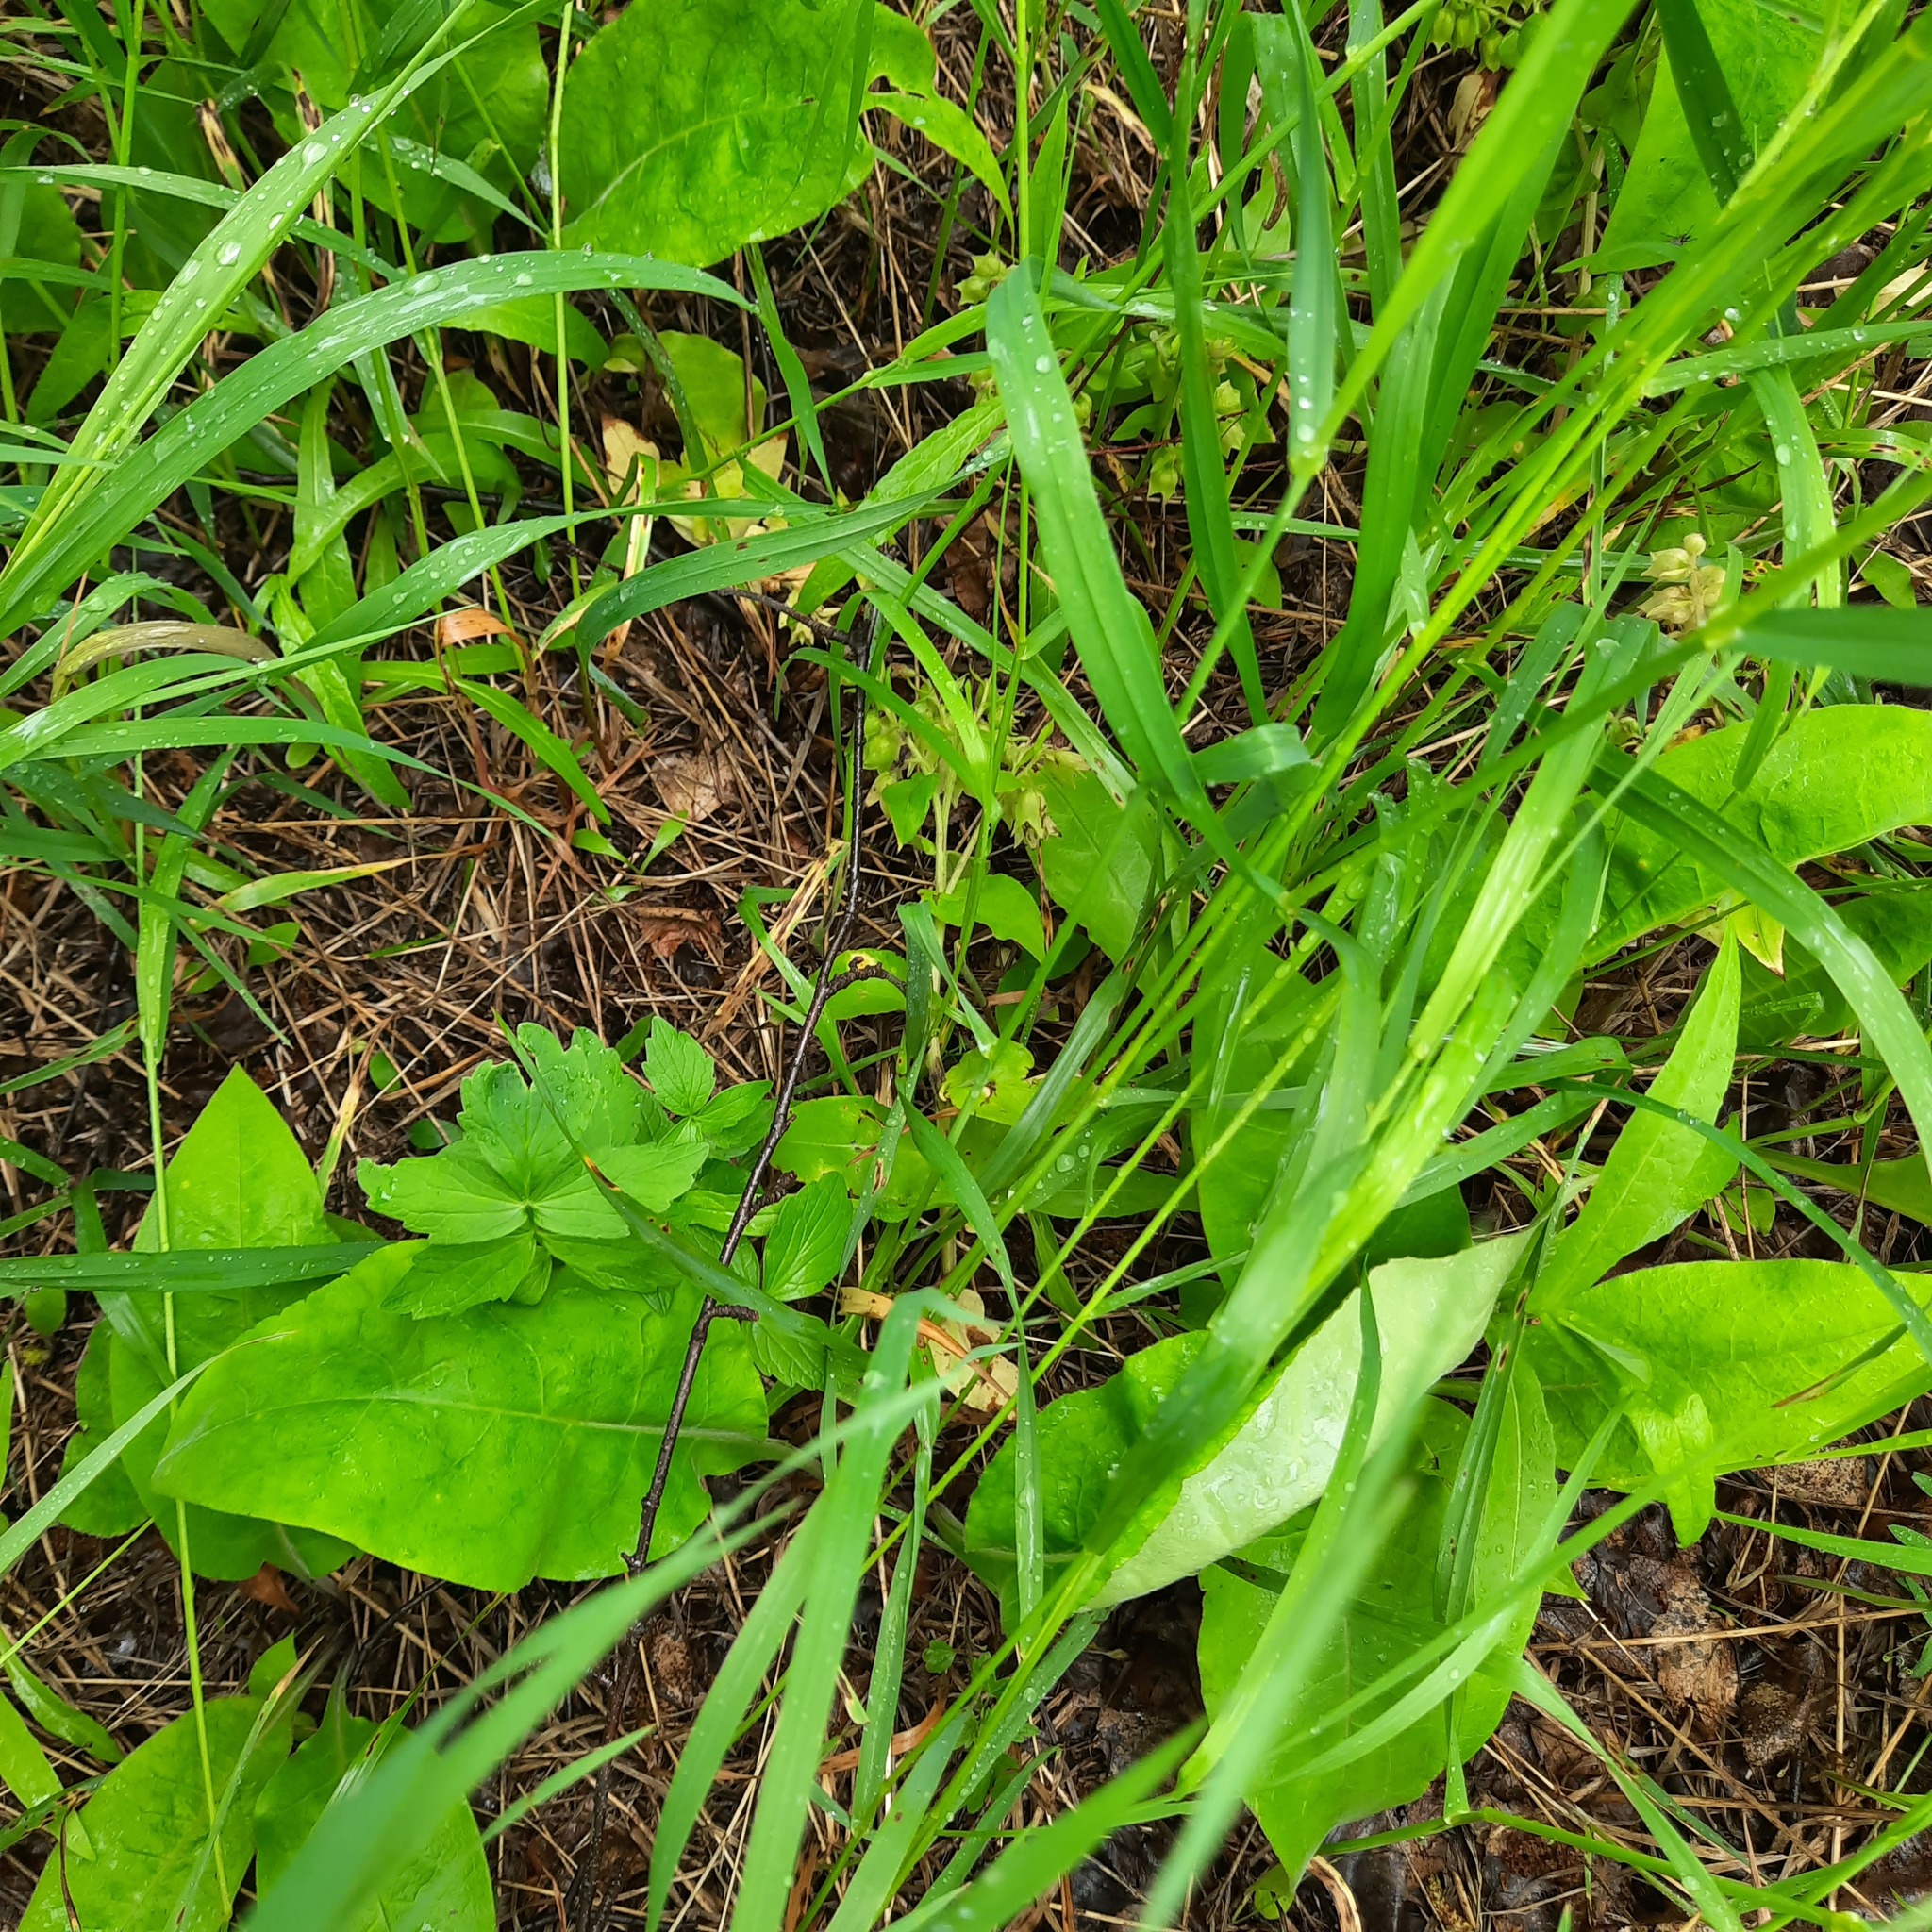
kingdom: Plantae
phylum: Tracheophyta
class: Magnoliopsida
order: Boraginales
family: Boraginaceae
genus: Pulmonaria
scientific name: Pulmonaria mollis
